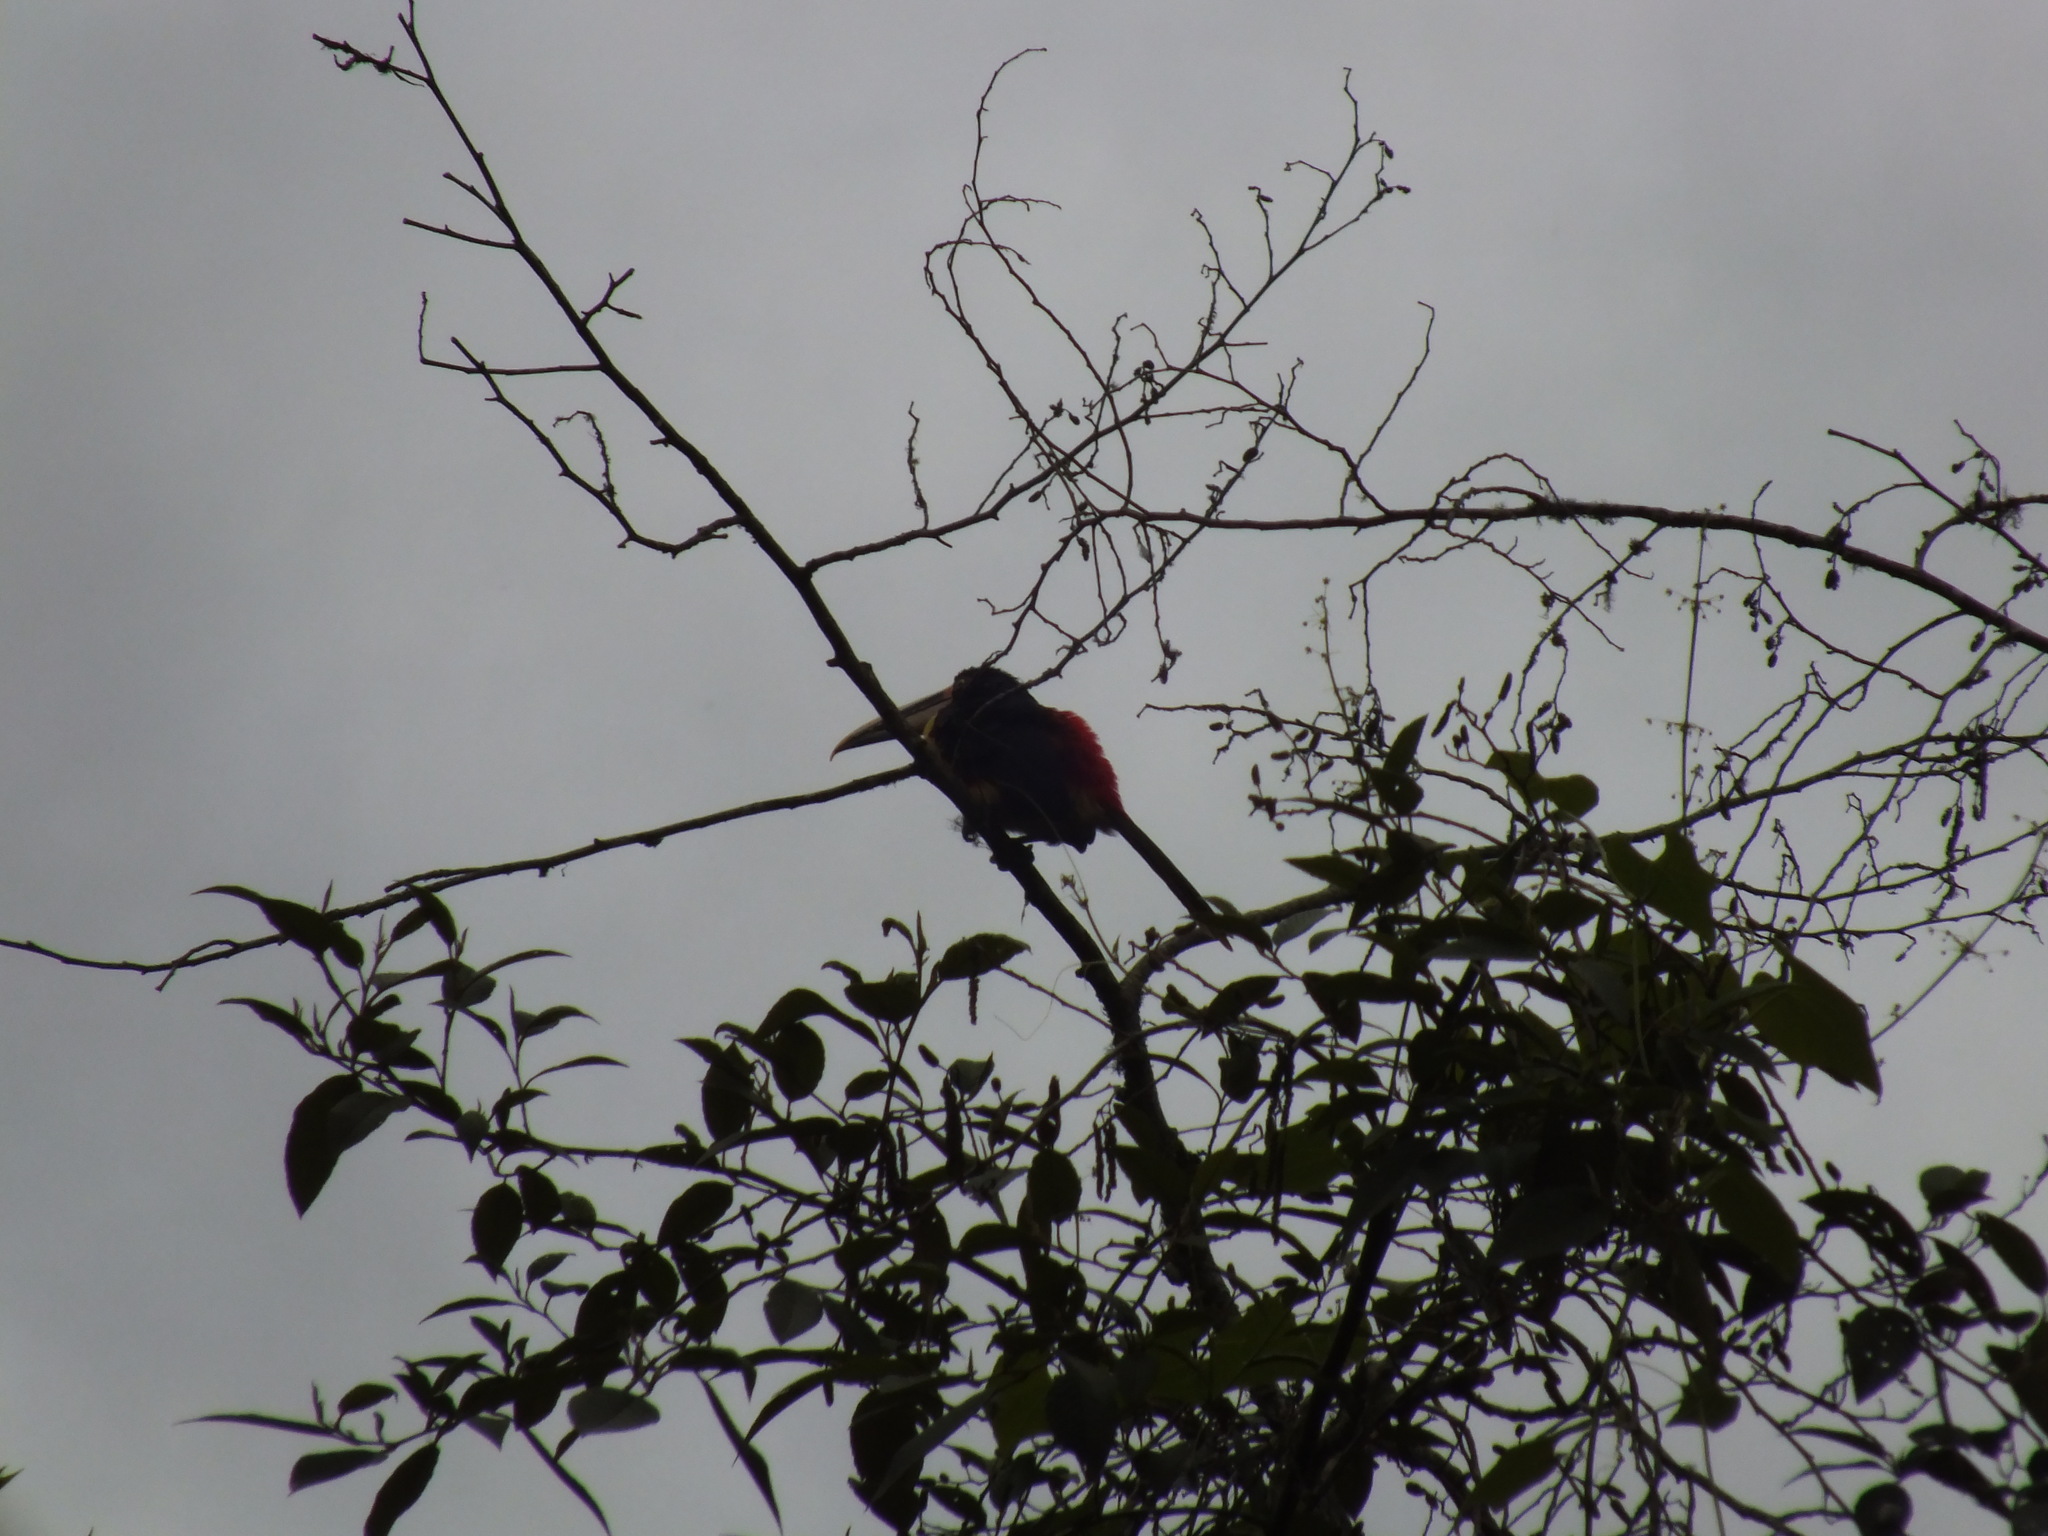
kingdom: Animalia
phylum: Chordata
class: Aves
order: Piciformes
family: Ramphastidae
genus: Pteroglossus
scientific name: Pteroglossus torquatus
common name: Collared aracari
